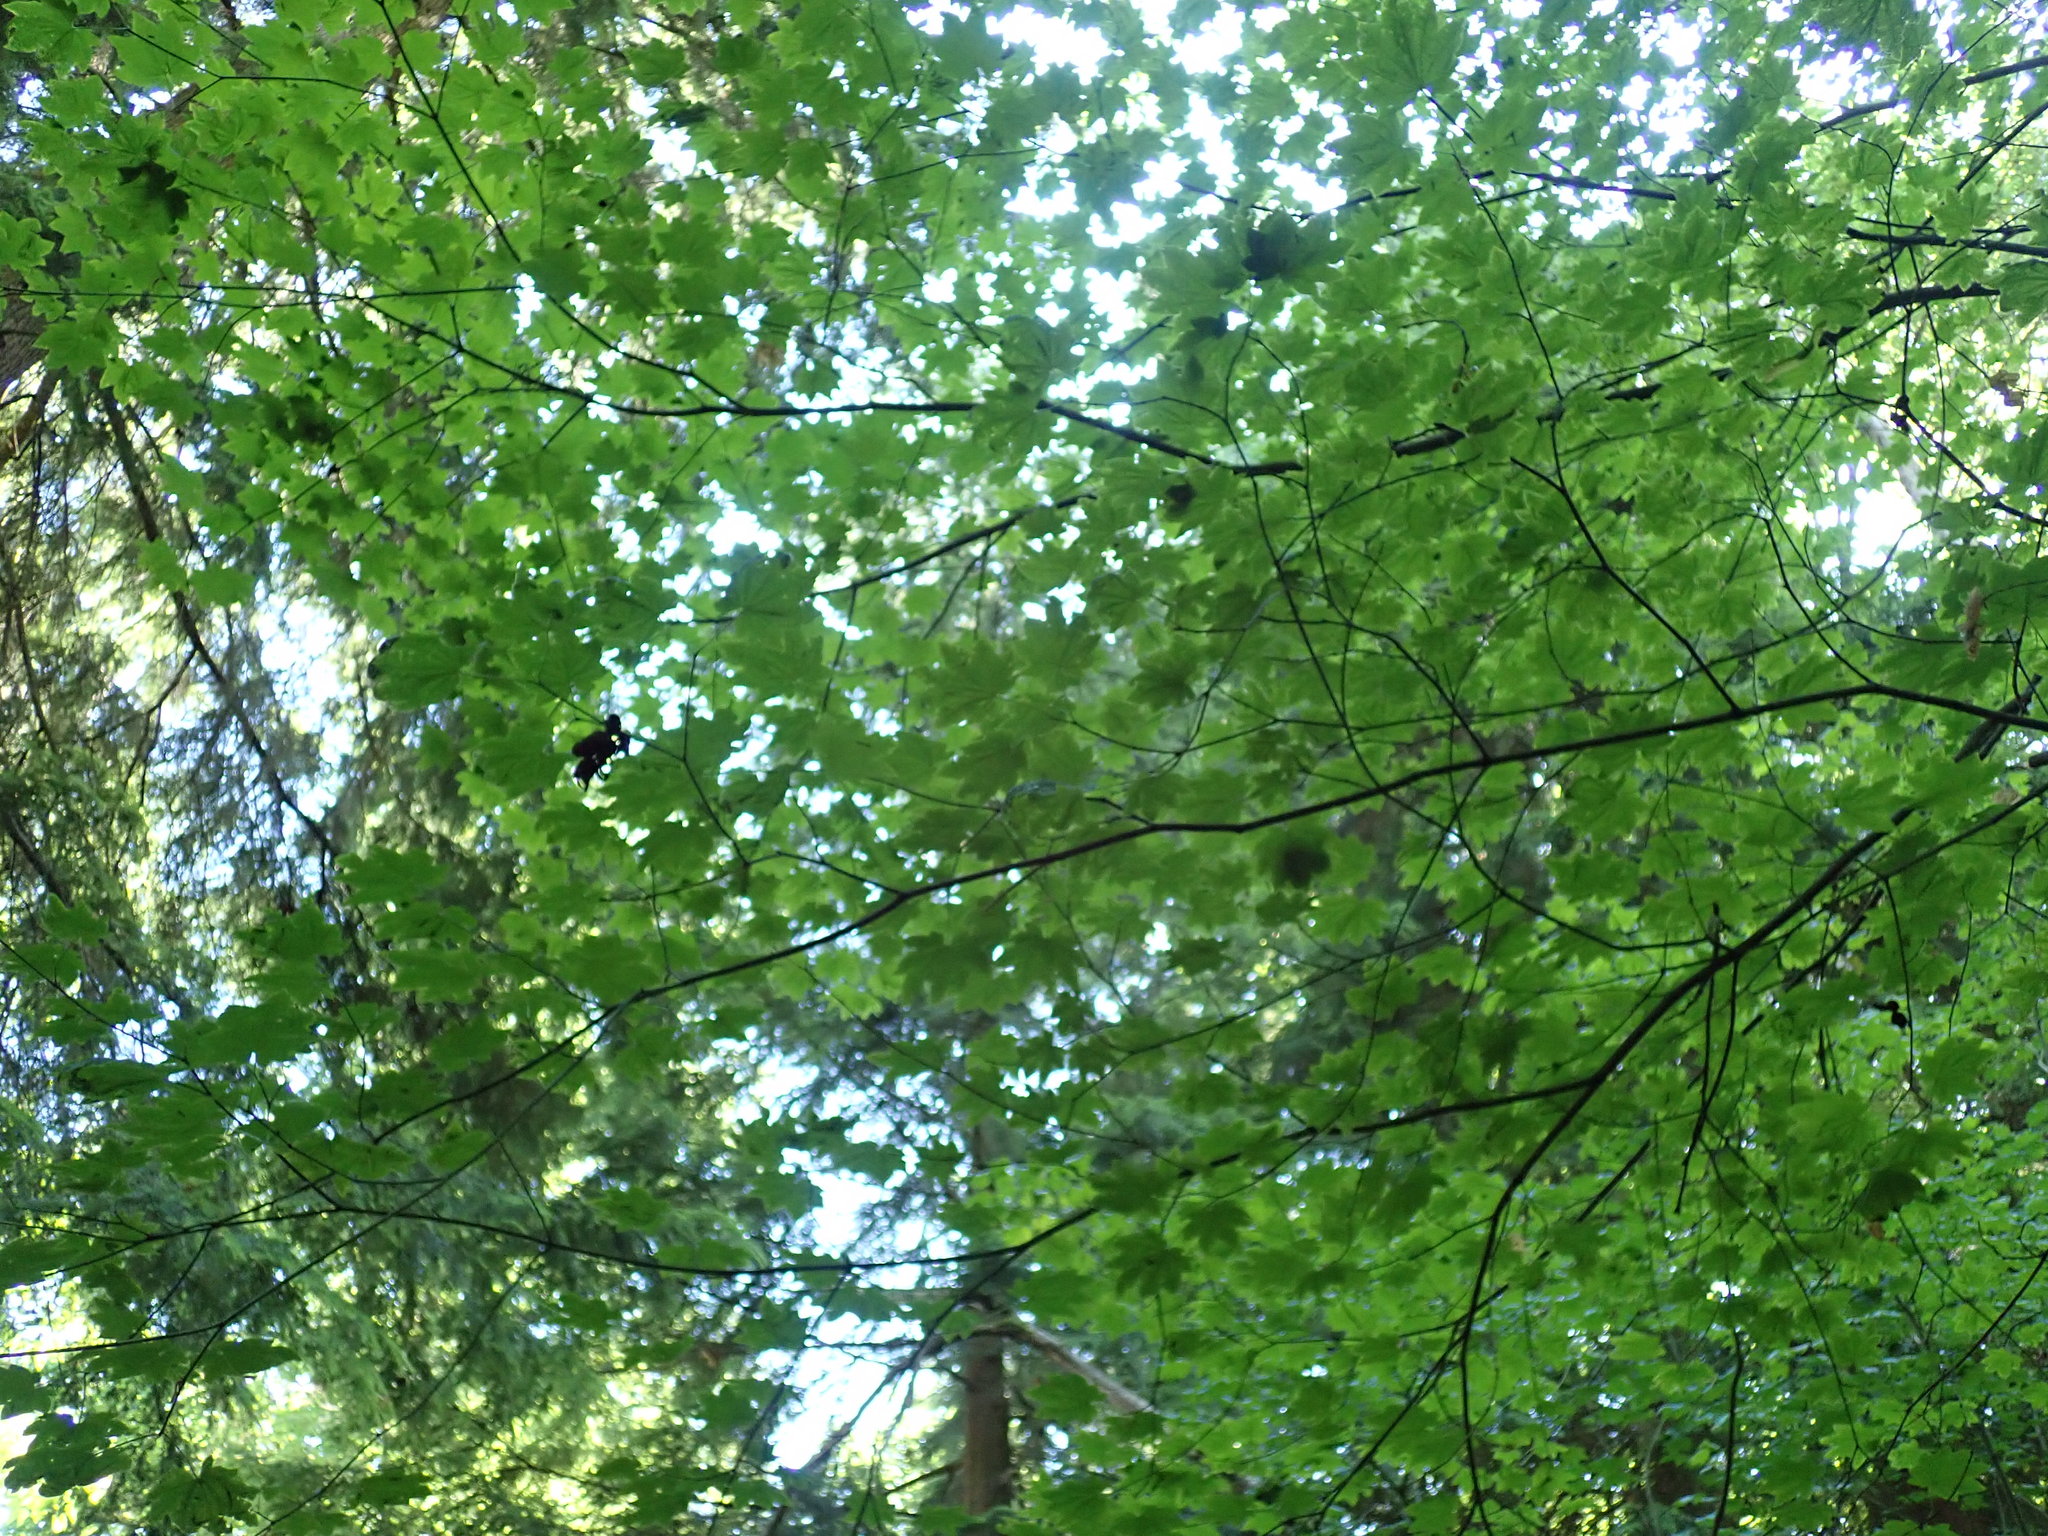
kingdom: Plantae
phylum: Tracheophyta
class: Magnoliopsida
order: Sapindales
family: Sapindaceae
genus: Acer
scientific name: Acer circinatum
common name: Vine maple
